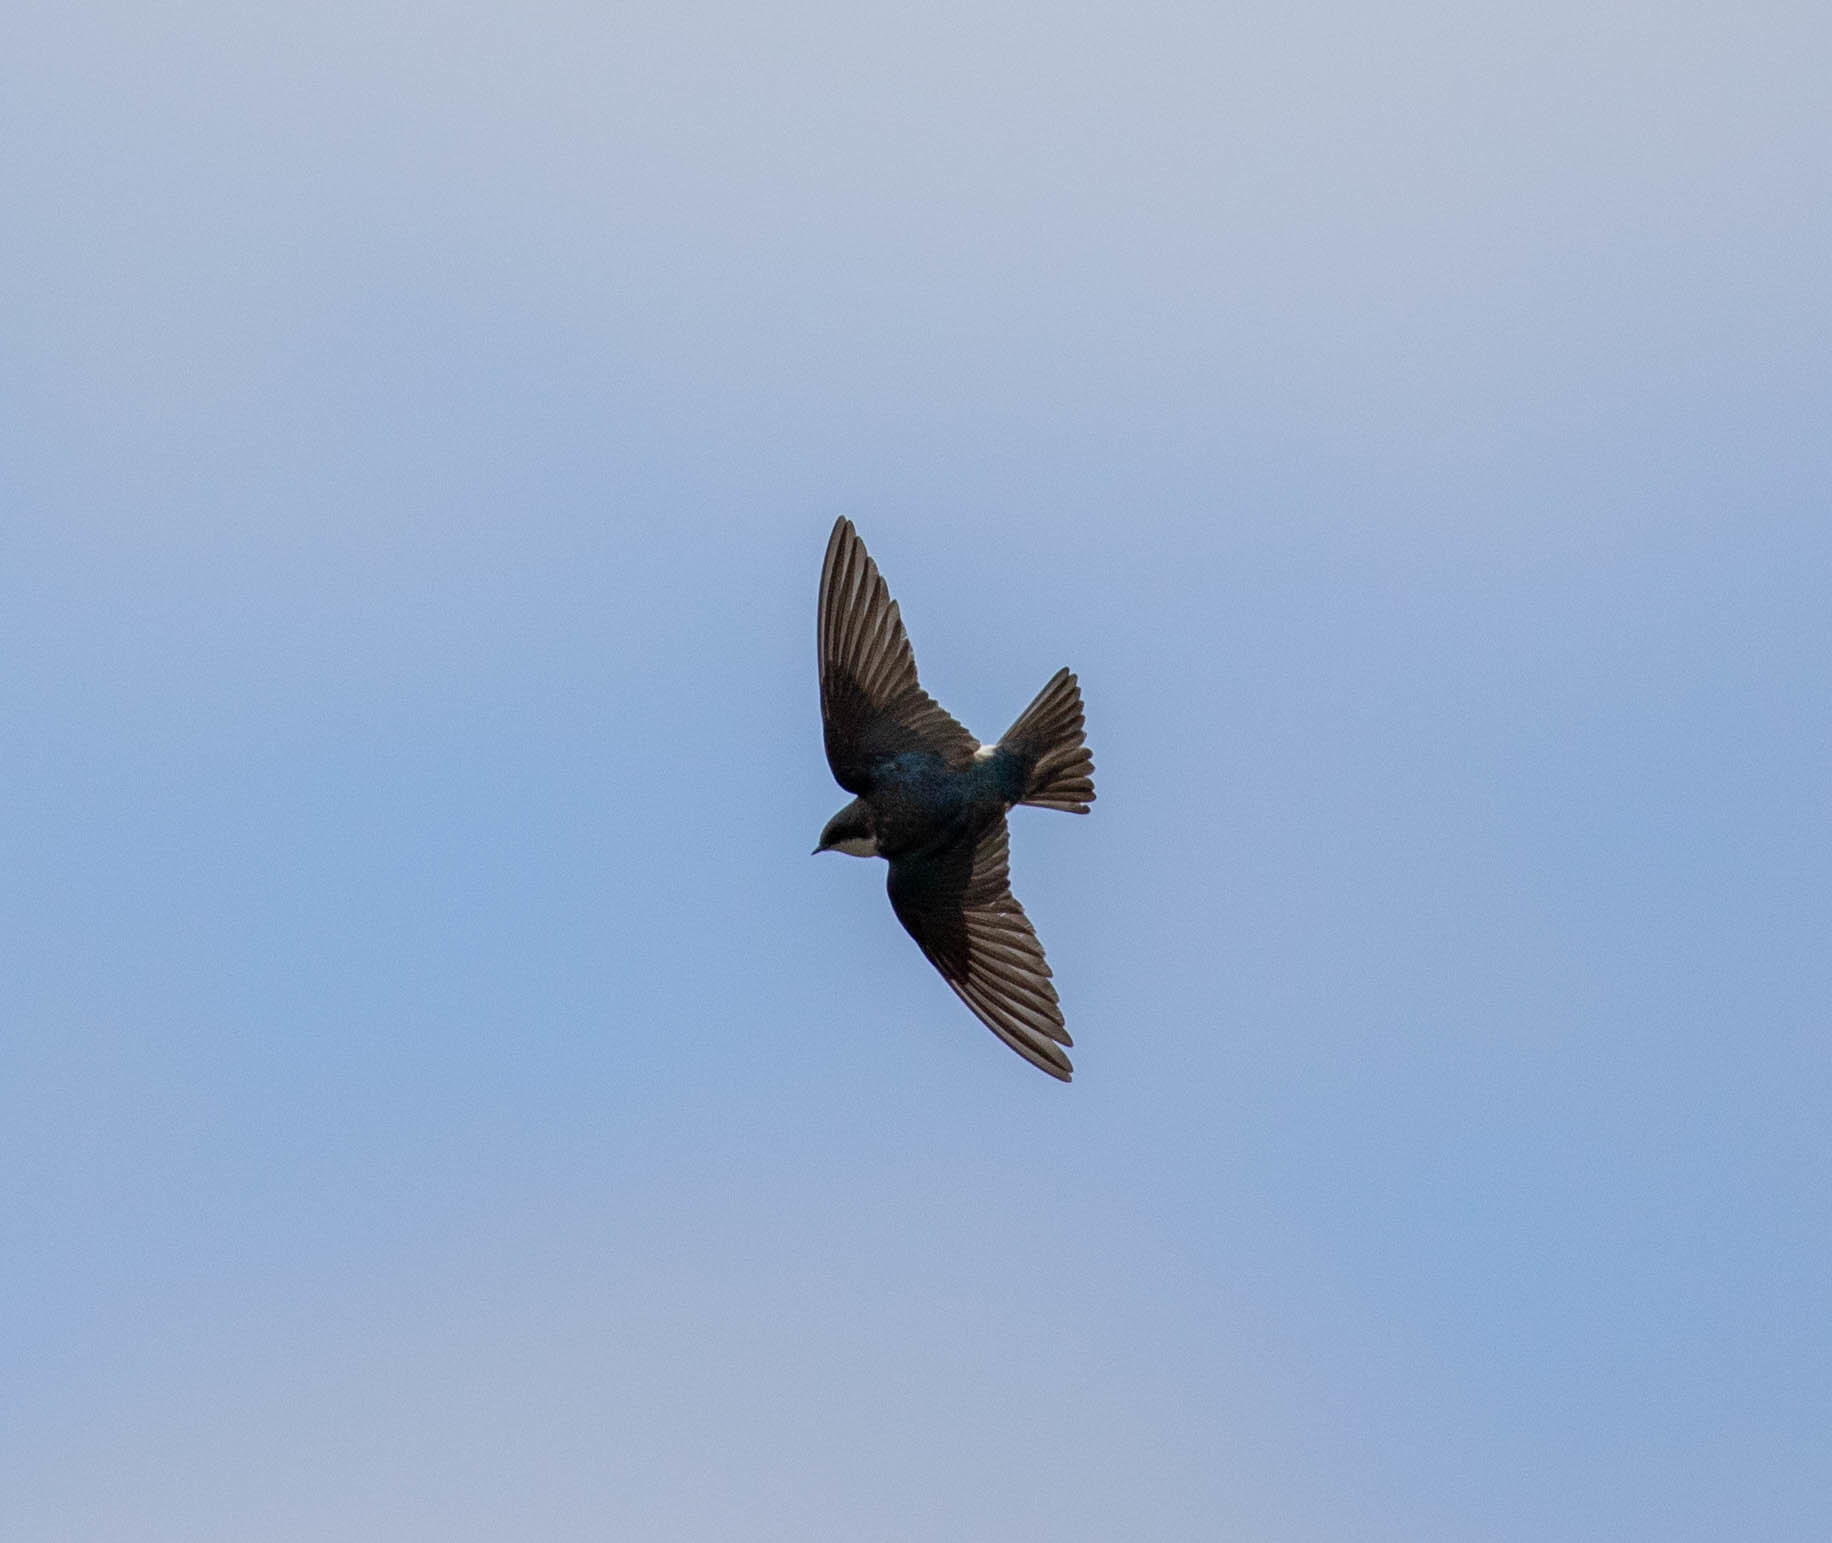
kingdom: Animalia
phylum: Chordata
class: Aves
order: Passeriformes
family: Hirundinidae
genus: Tachycineta
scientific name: Tachycineta bicolor
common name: Tree swallow
